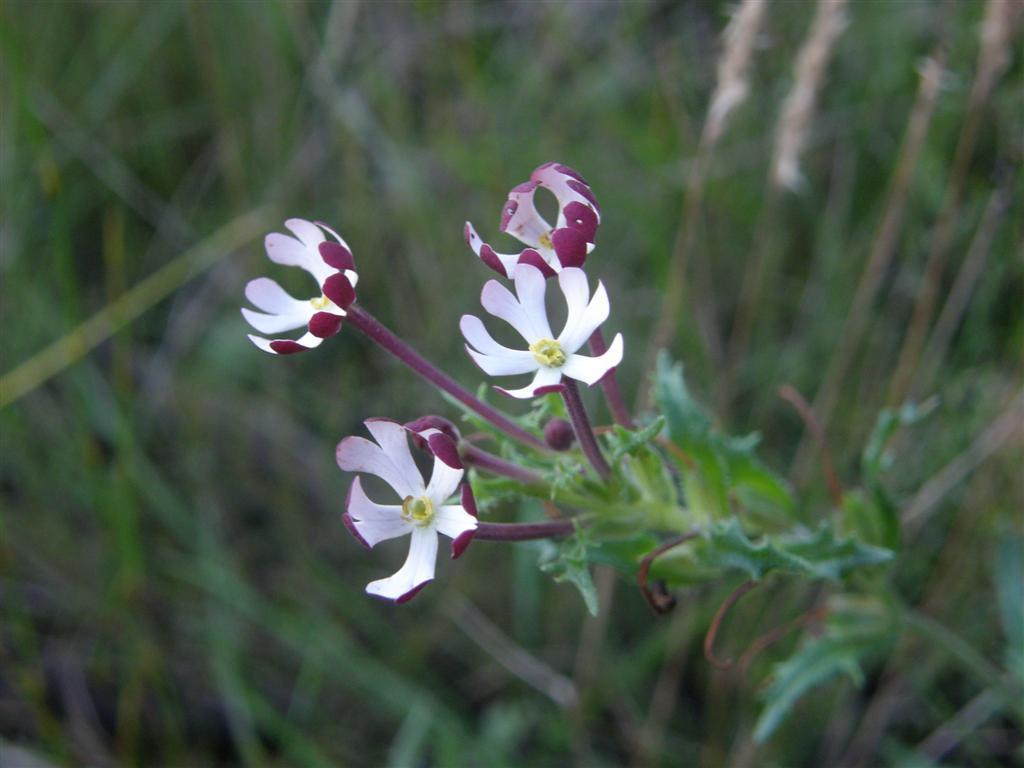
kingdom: Plantae
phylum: Tracheophyta
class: Magnoliopsida
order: Lamiales
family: Scrophulariaceae
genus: Zaluzianskya
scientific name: Zaluzianskya capensis
